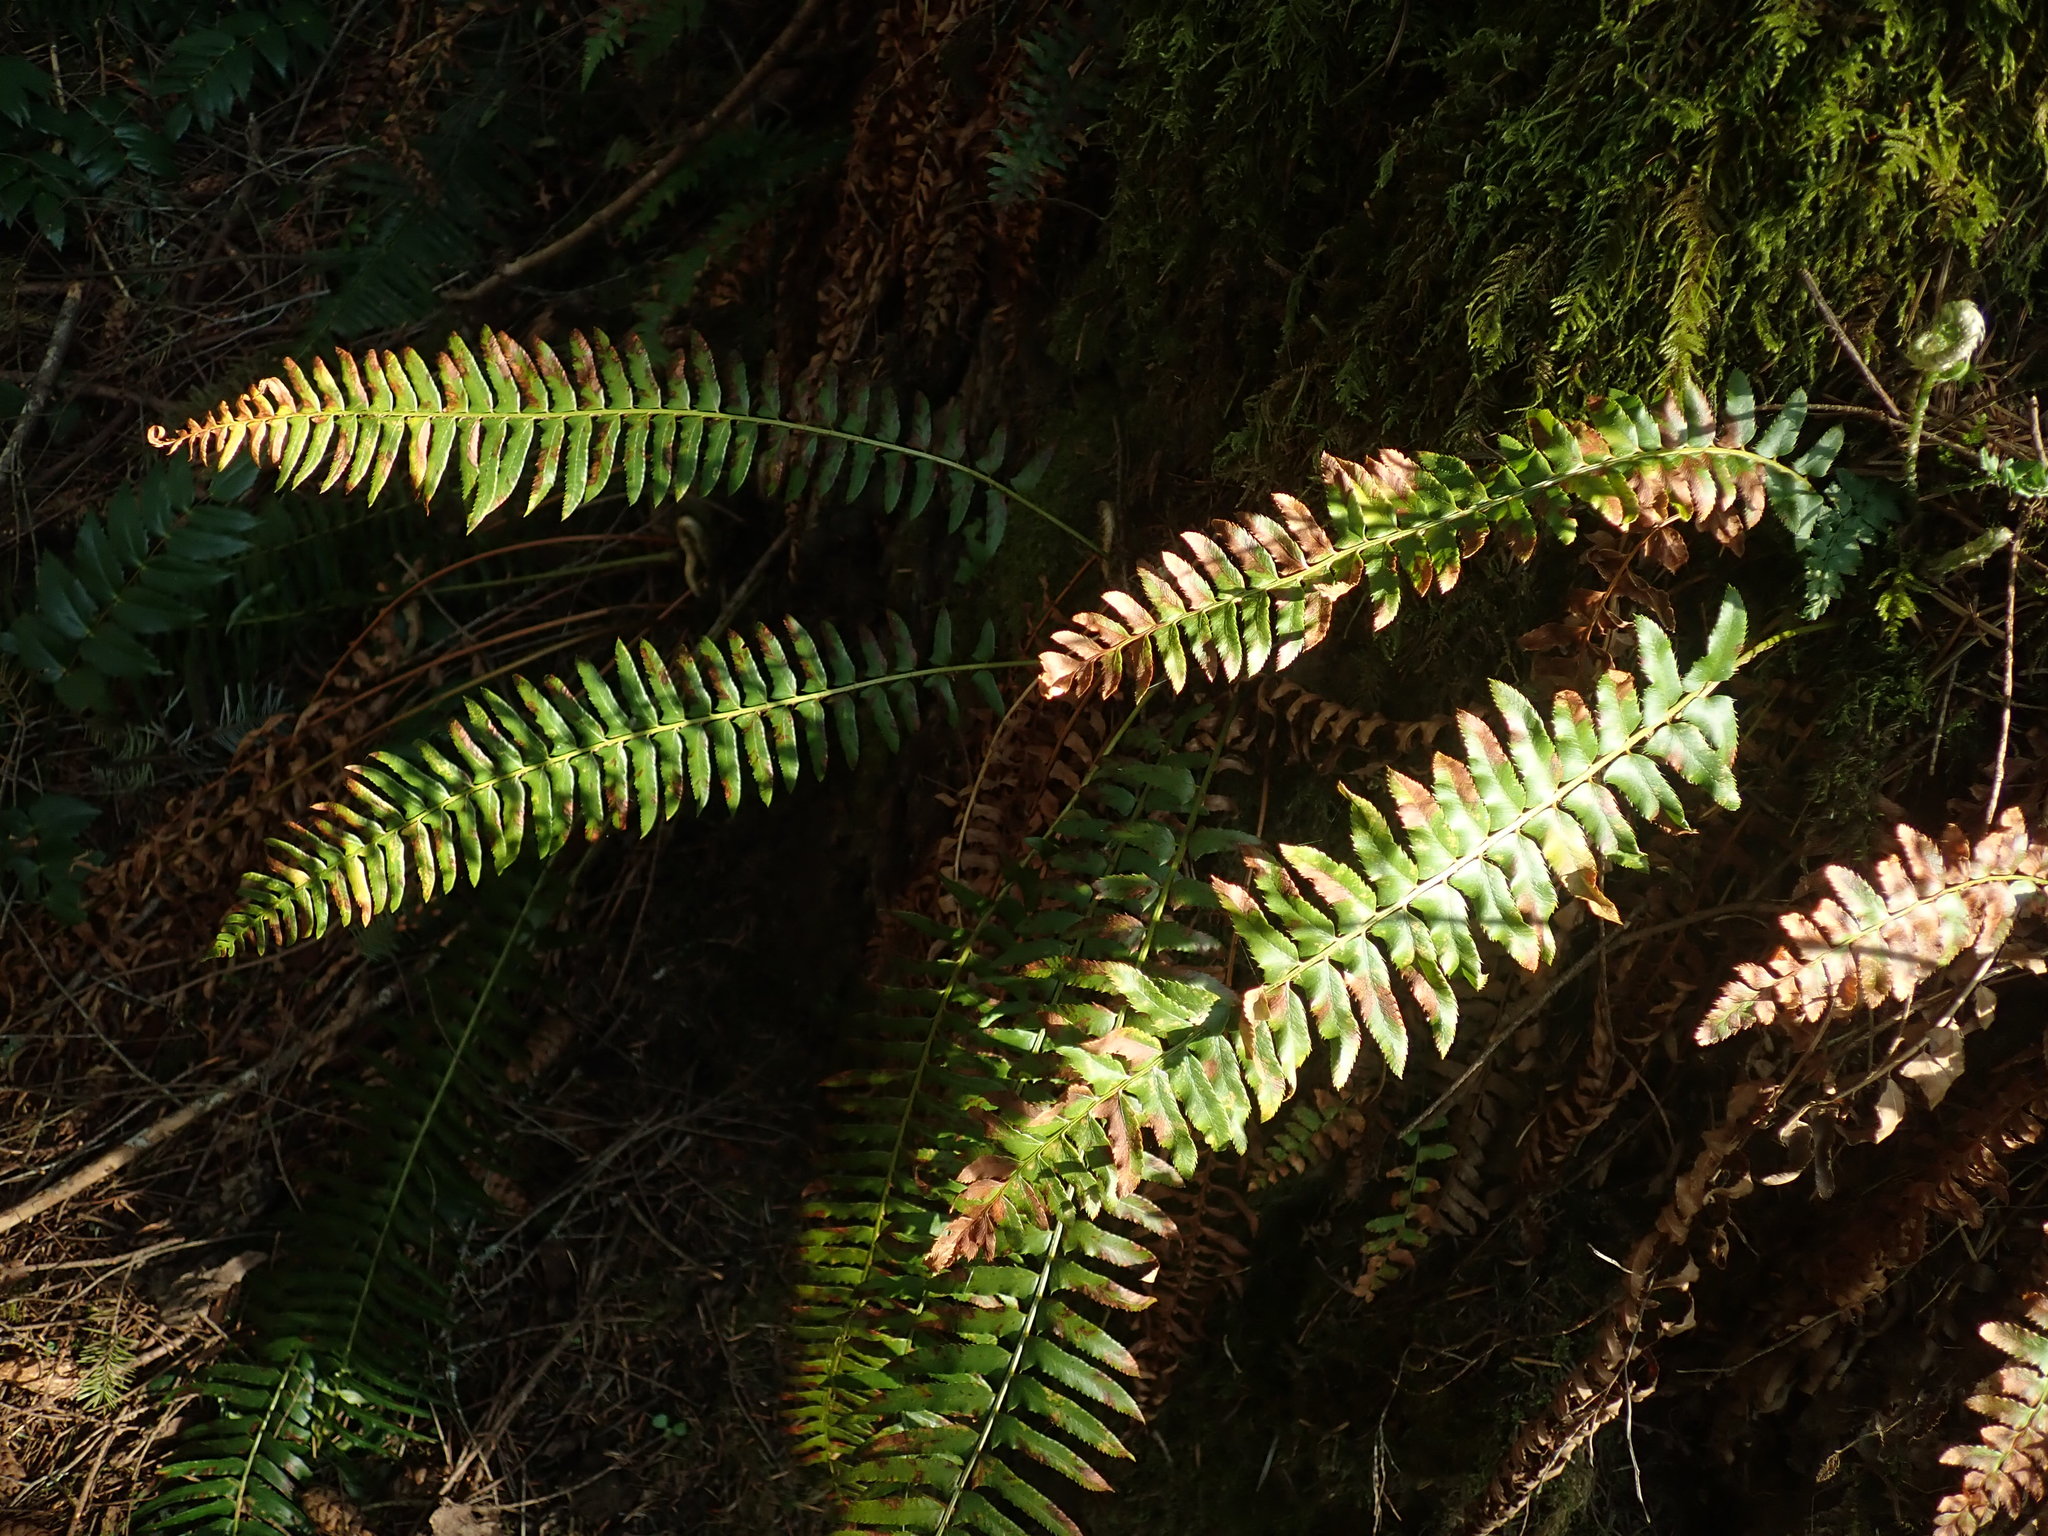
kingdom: Plantae
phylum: Tracheophyta
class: Polypodiopsida
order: Polypodiales
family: Dryopteridaceae
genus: Polystichum
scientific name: Polystichum munitum
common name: Western sword-fern
